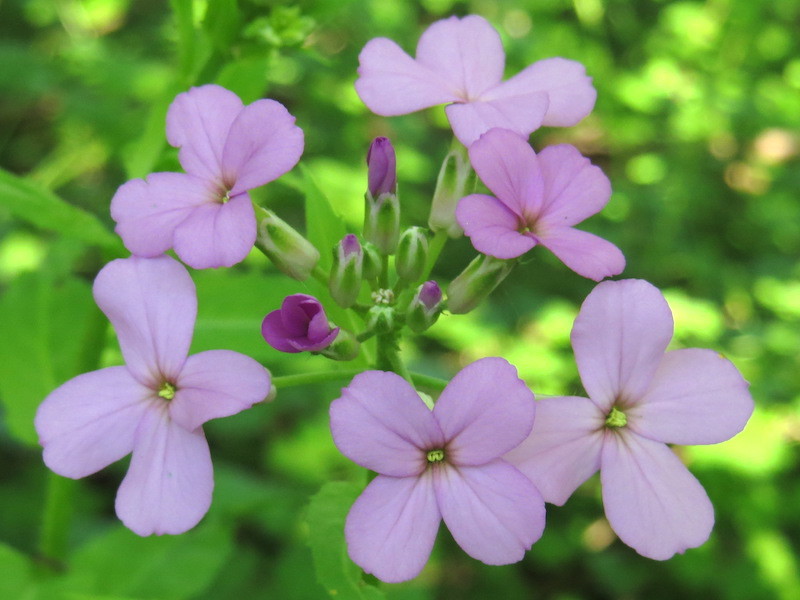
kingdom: Plantae
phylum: Tracheophyta
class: Magnoliopsida
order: Brassicales
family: Brassicaceae
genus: Hesperis
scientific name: Hesperis matronalis
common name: Dame's-violet
